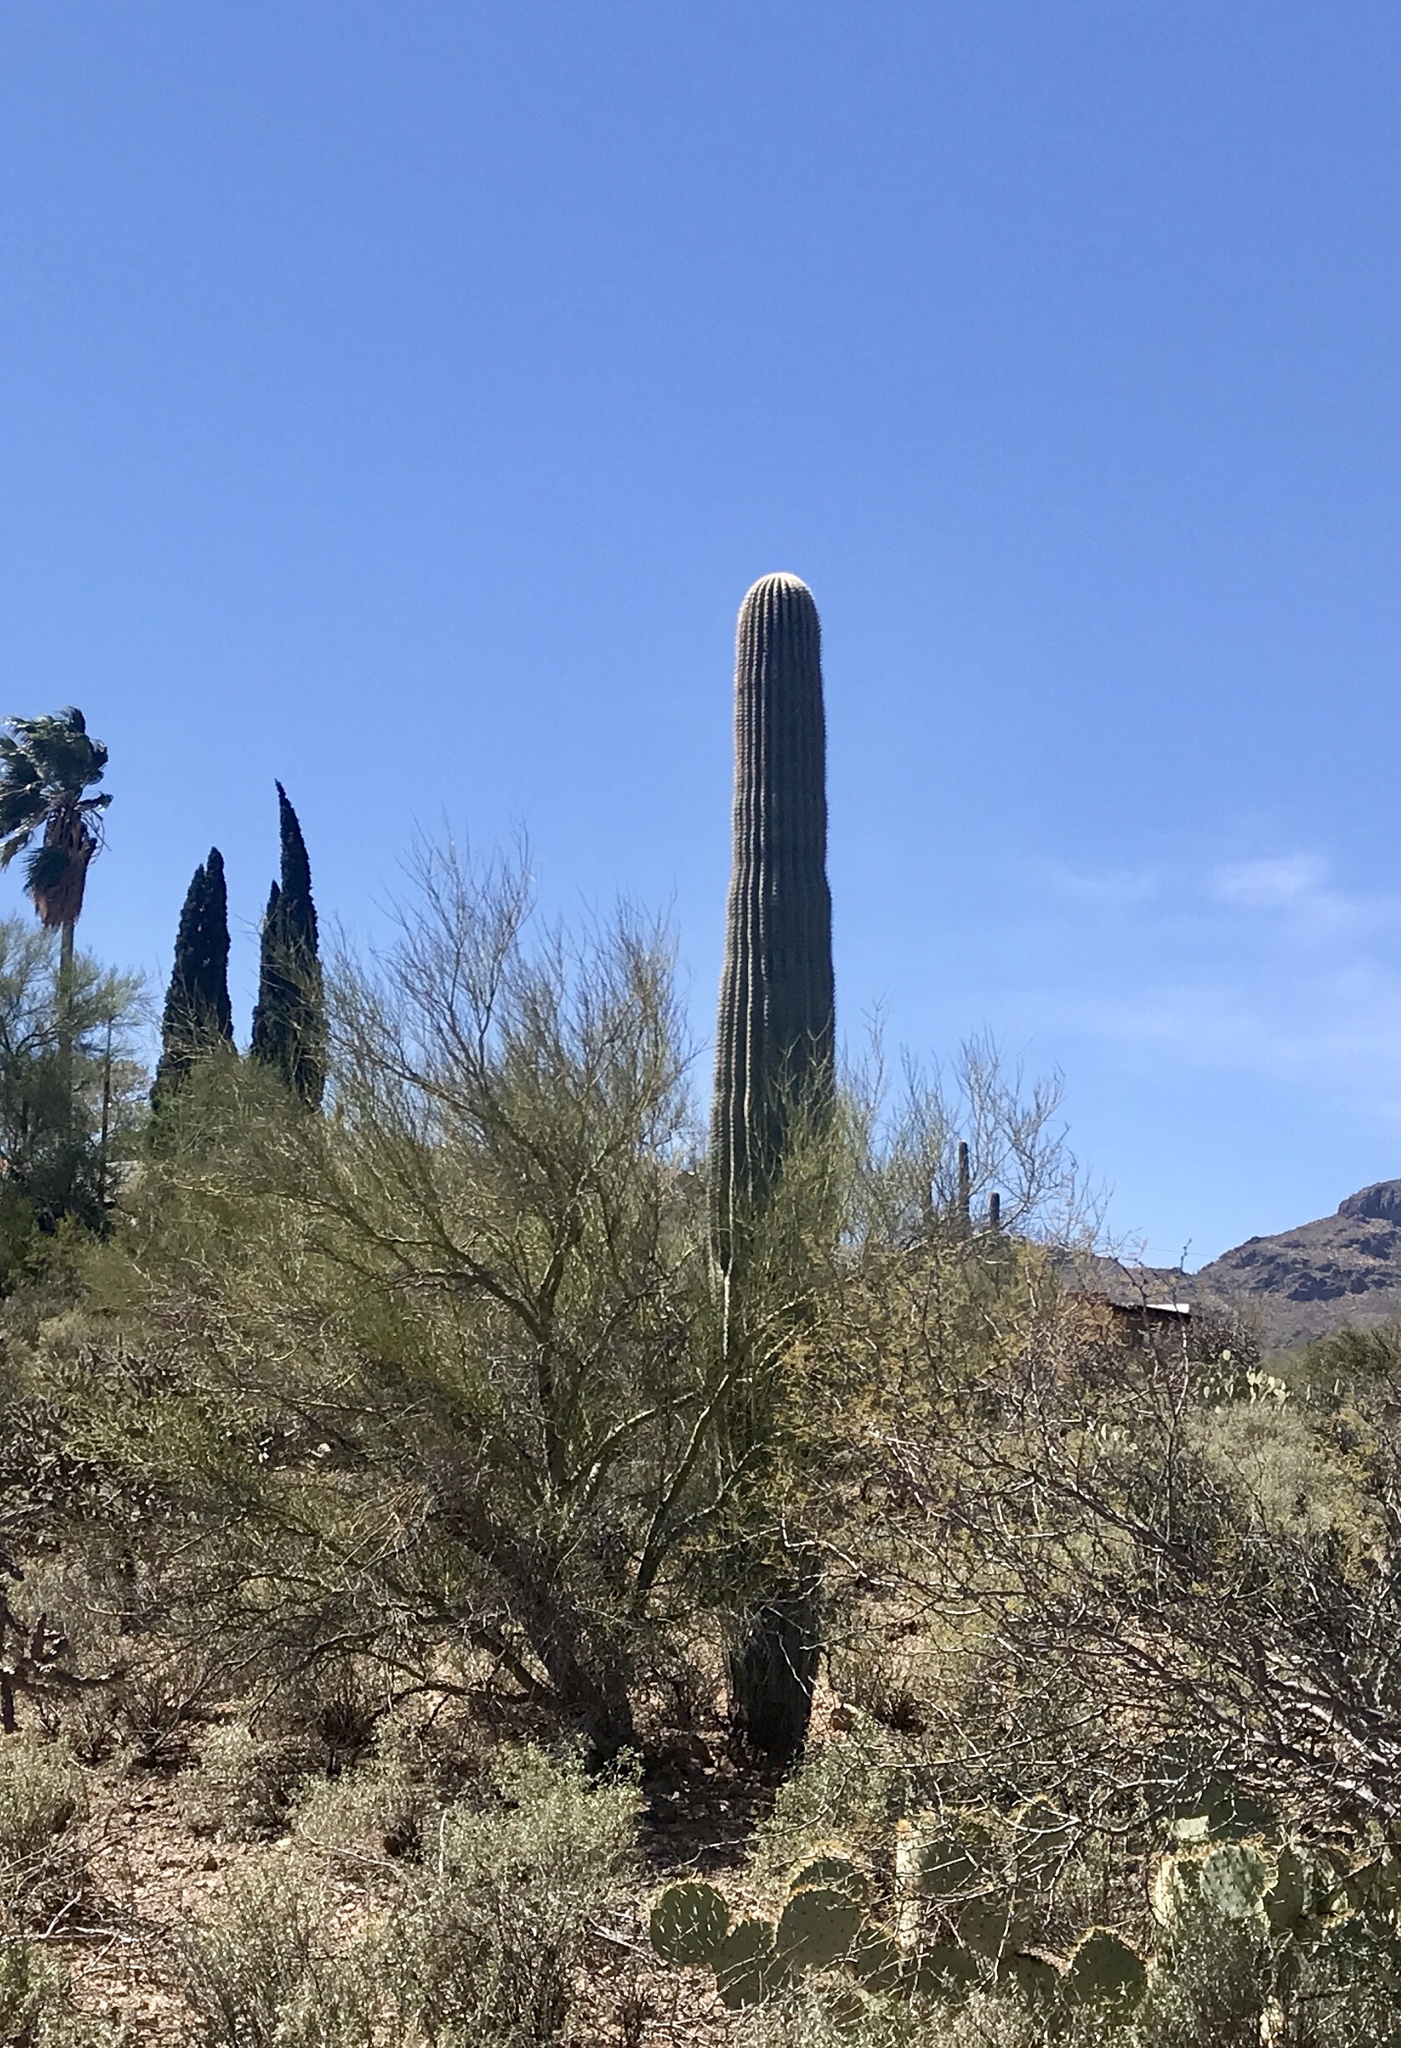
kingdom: Plantae
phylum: Tracheophyta
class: Magnoliopsida
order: Caryophyllales
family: Cactaceae
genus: Carnegiea
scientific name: Carnegiea gigantea
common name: Saguaro
